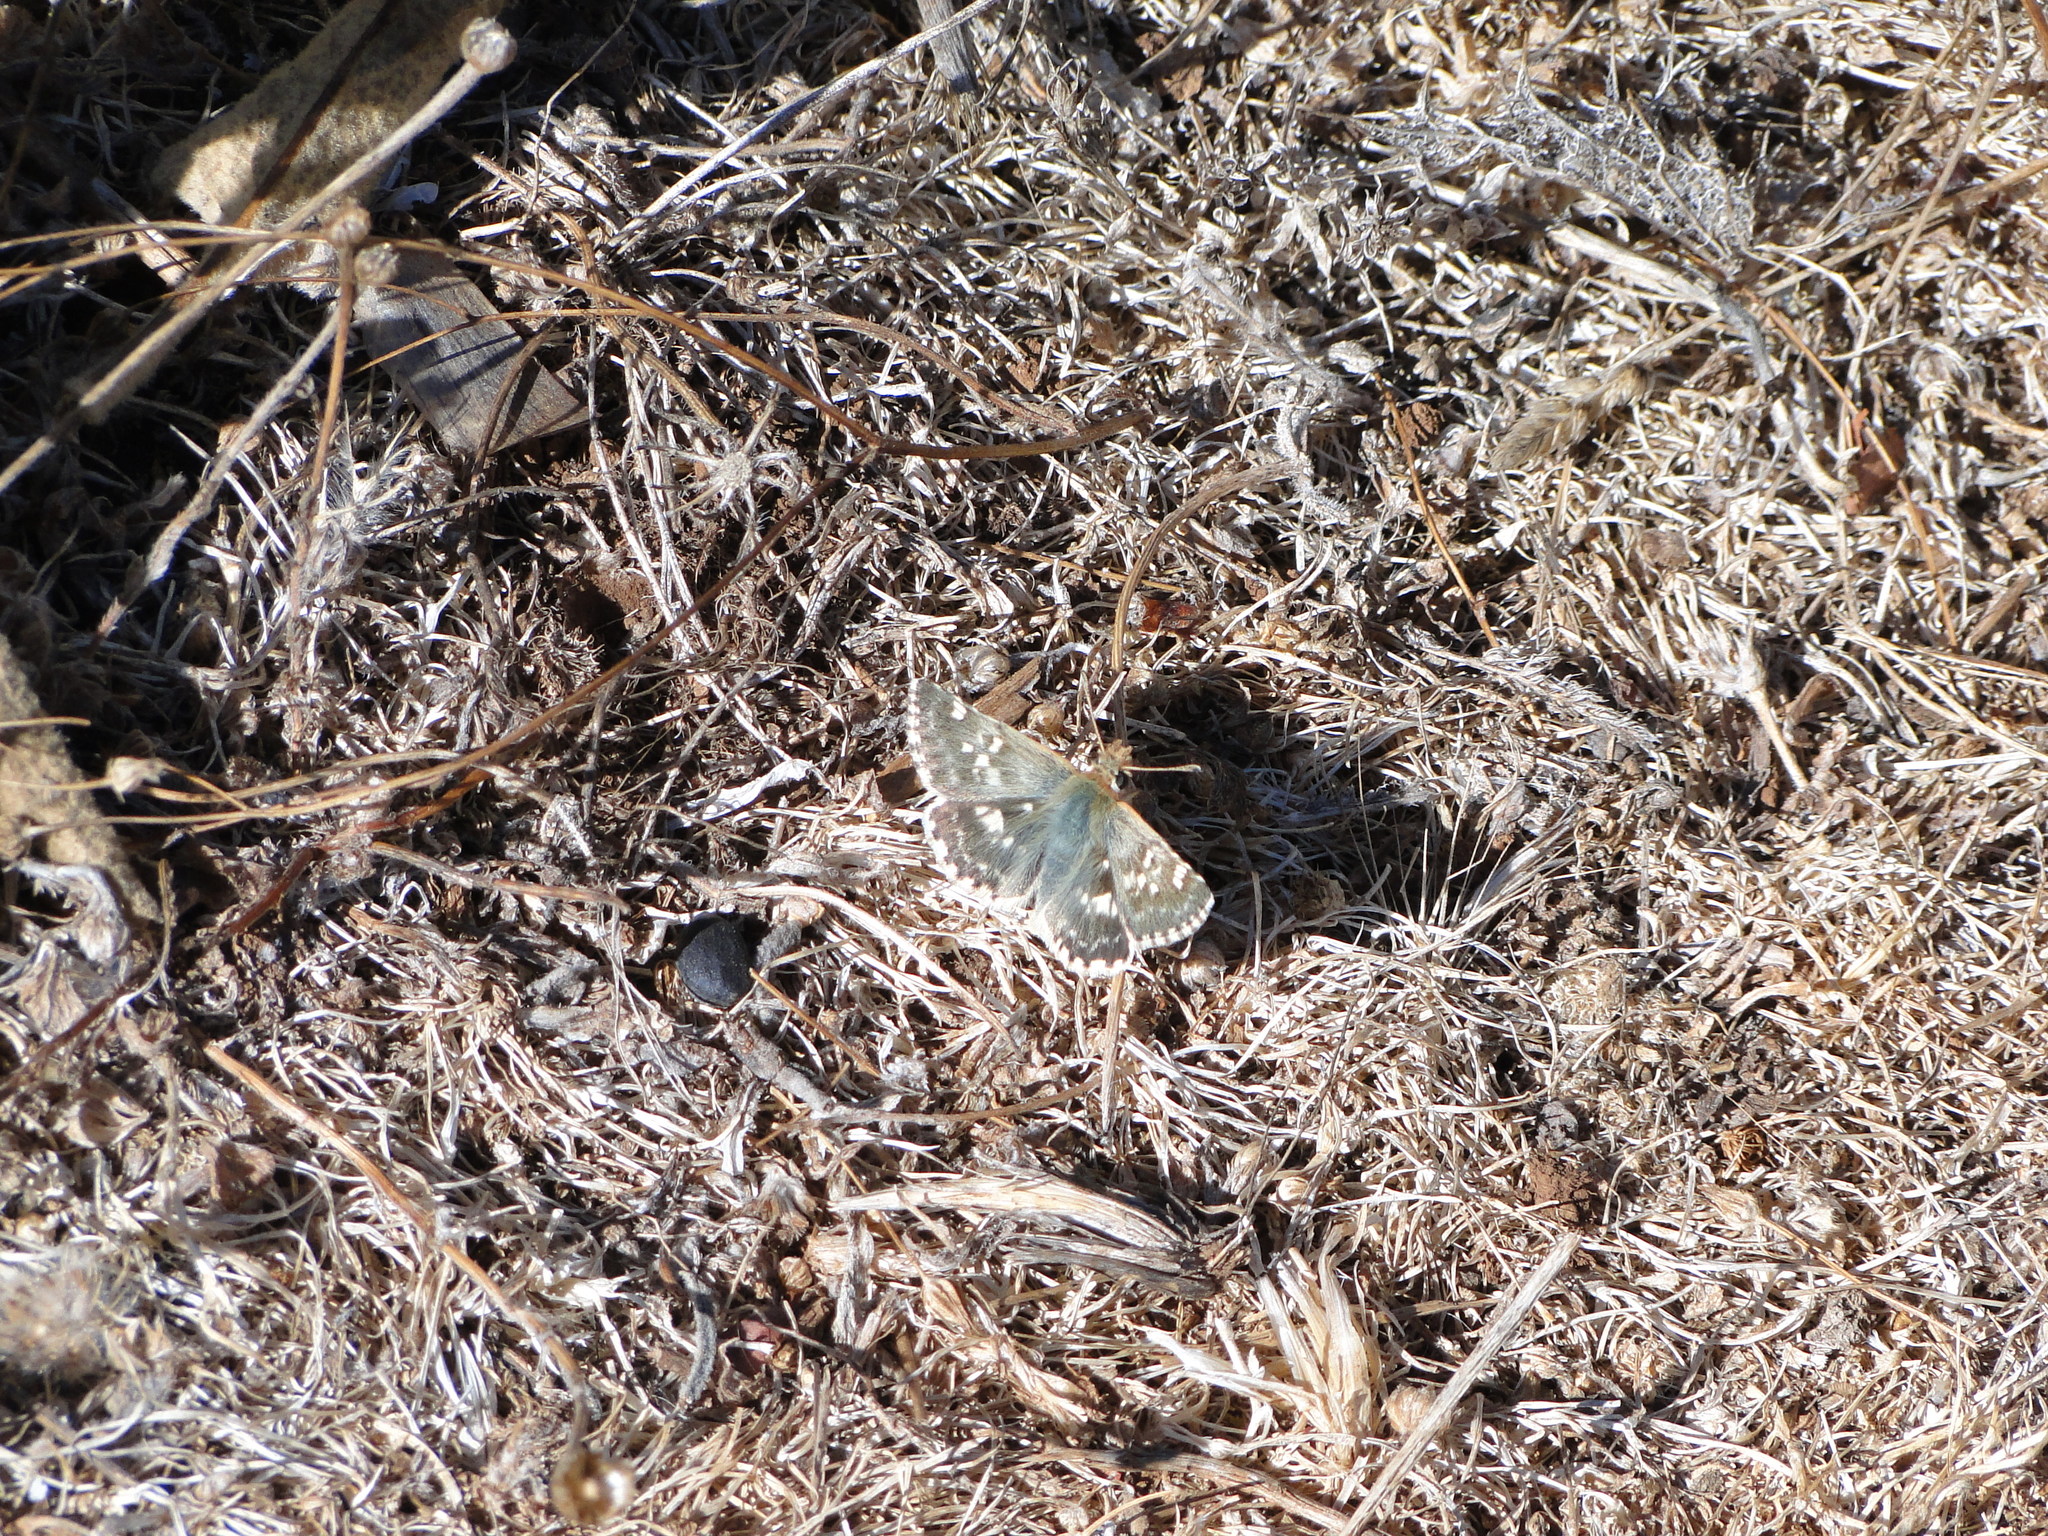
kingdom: Animalia
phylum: Arthropoda
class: Insecta
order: Lepidoptera
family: Hesperiidae
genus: Syrichtus
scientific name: Syrichtus Muschampia proto
